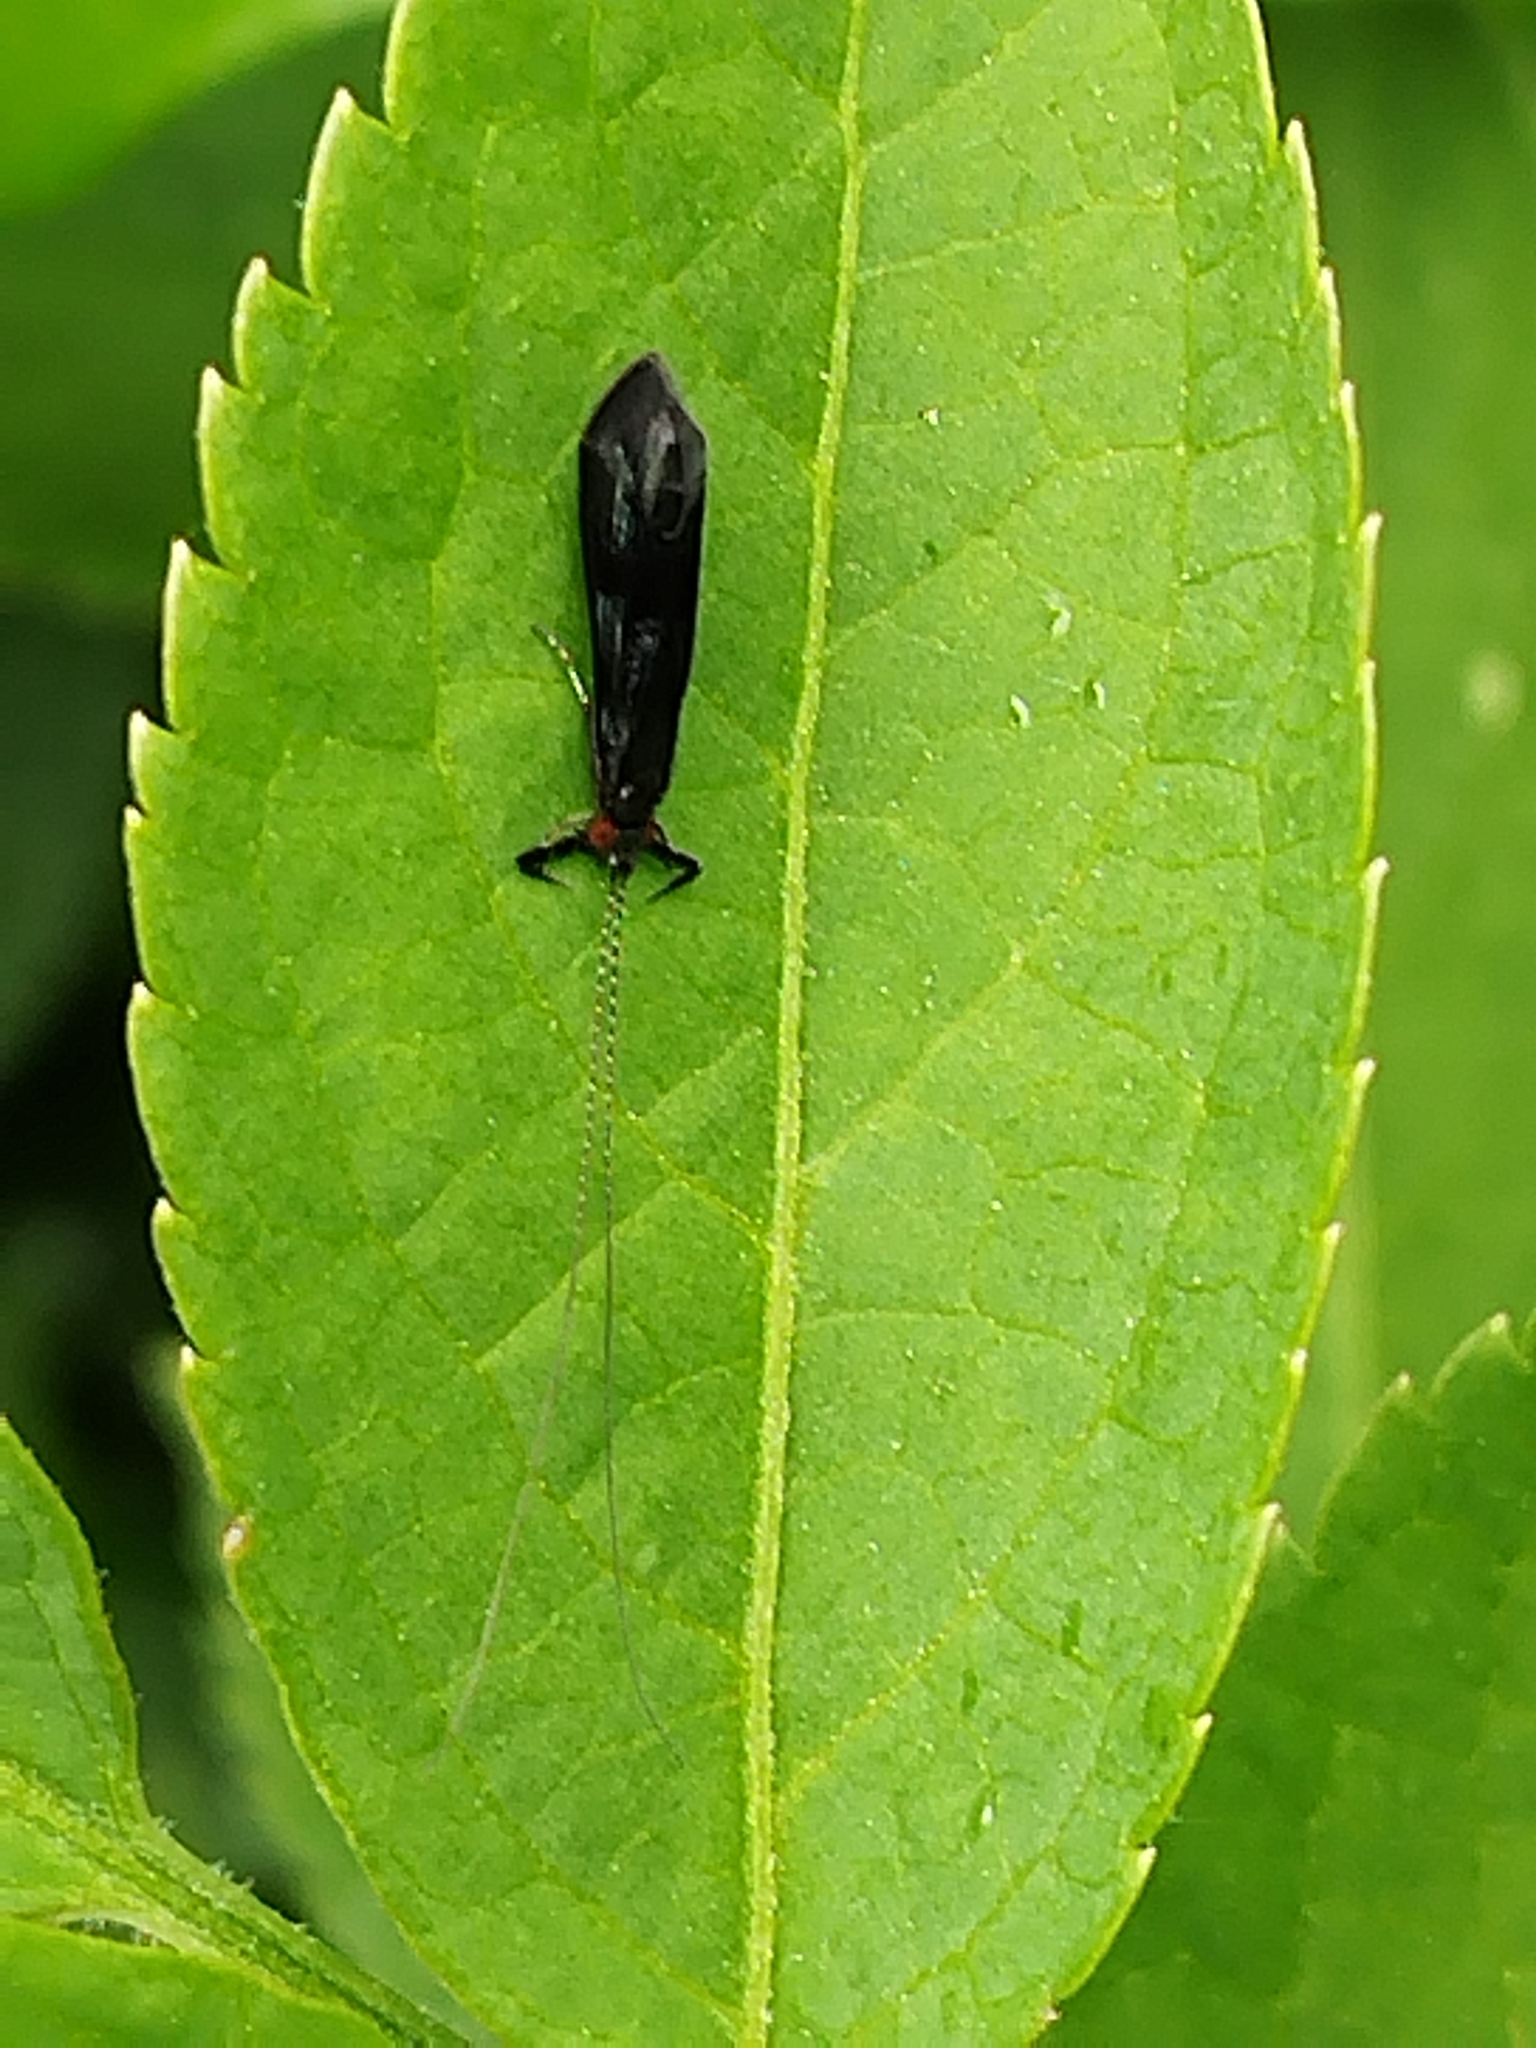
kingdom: Animalia
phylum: Arthropoda
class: Insecta
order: Trichoptera
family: Leptoceridae
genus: Mystacides
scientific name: Mystacides azureus
